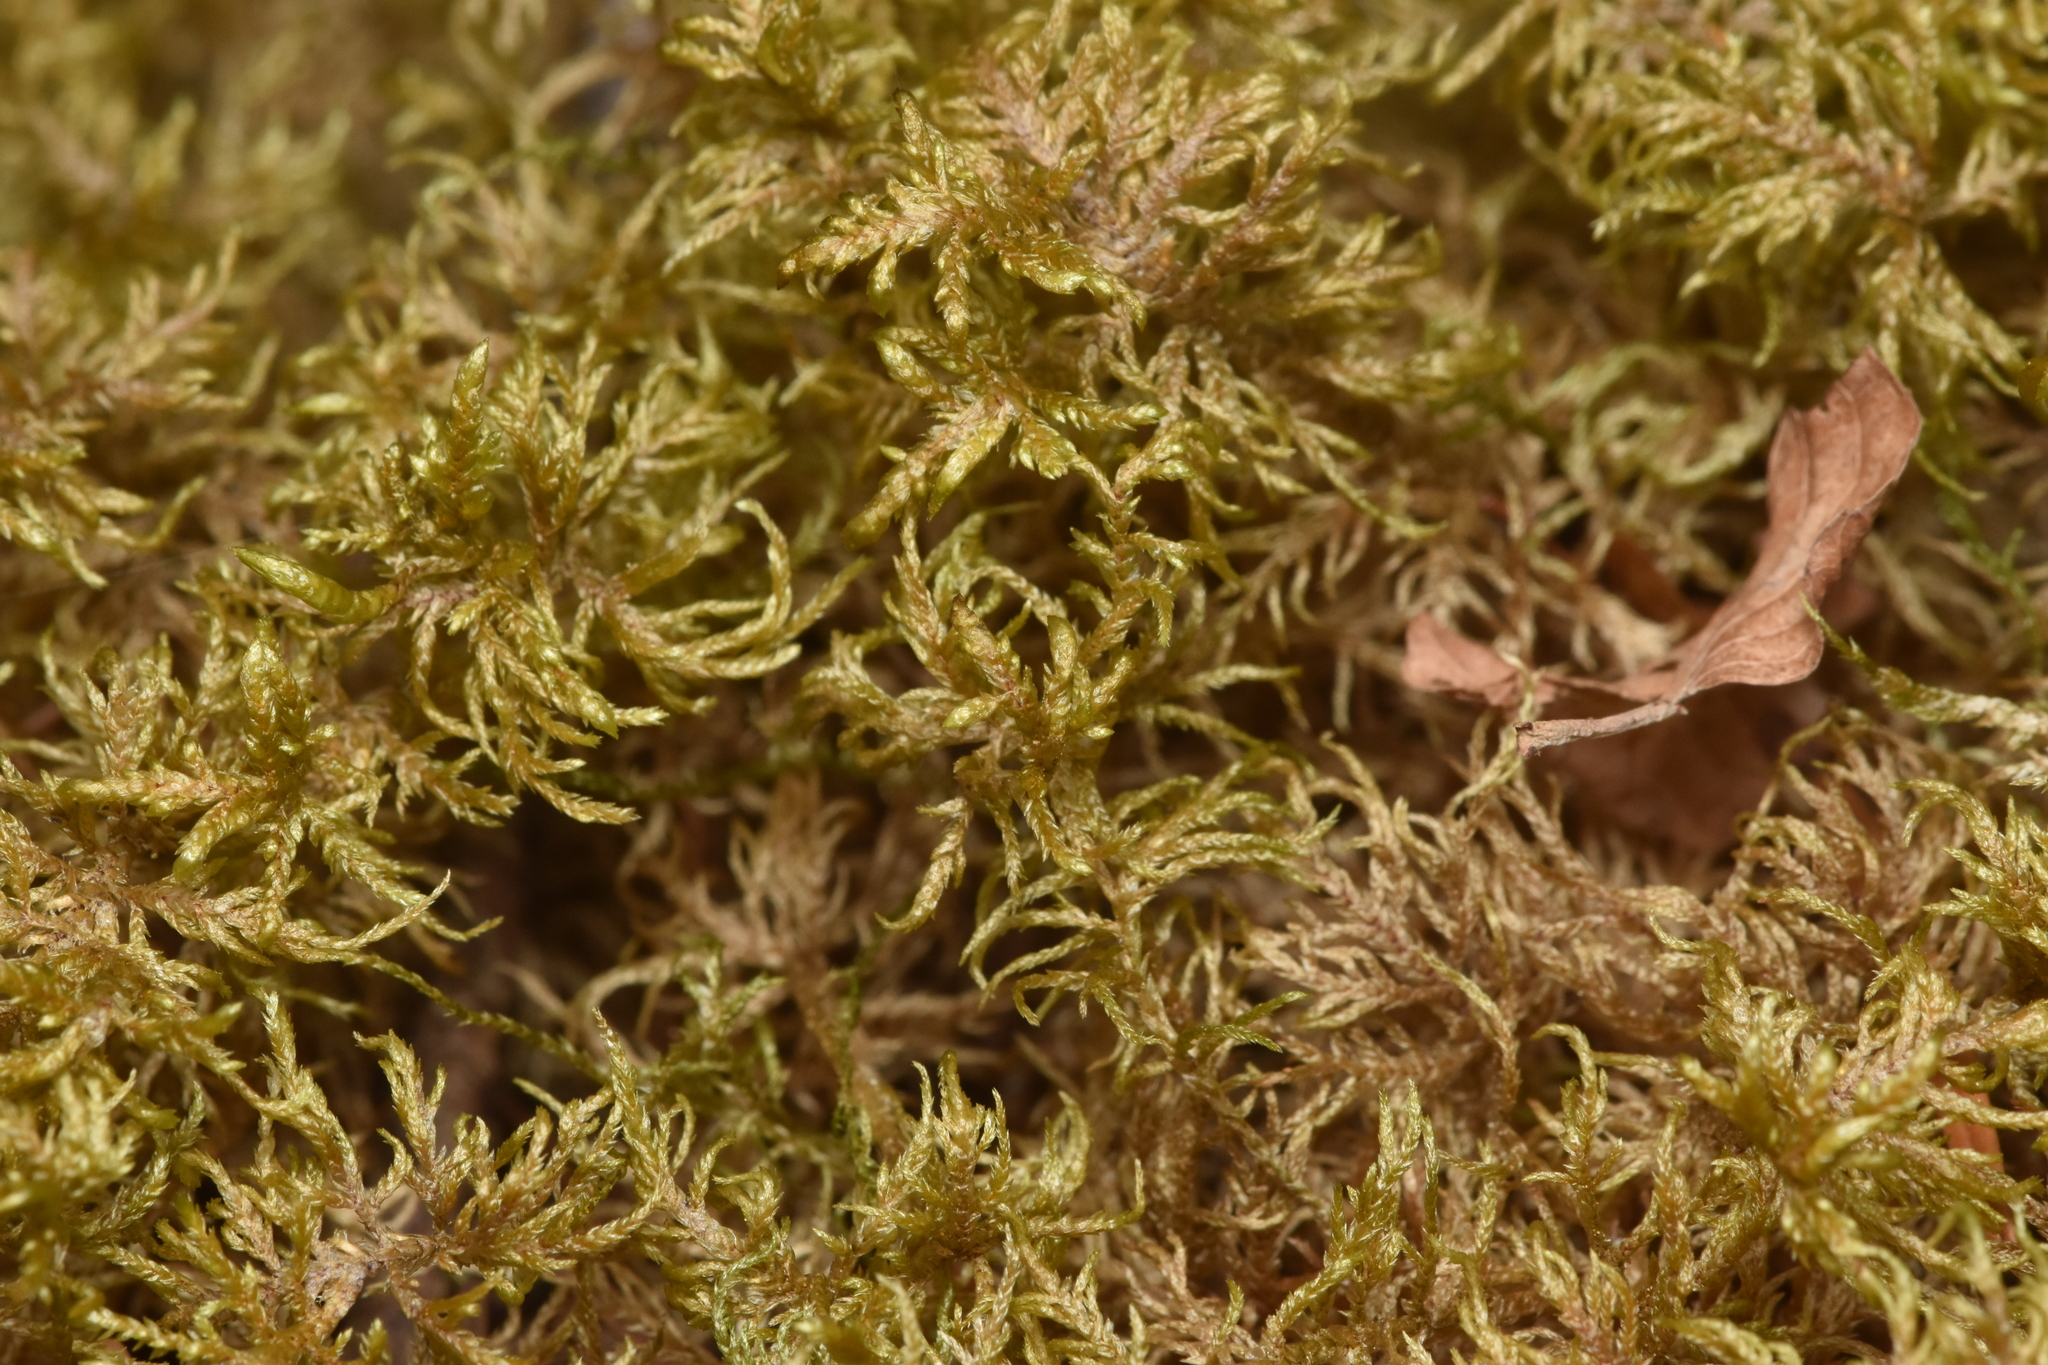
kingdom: Plantae
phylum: Bryophyta
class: Bryopsida
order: Hypnales
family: Hylocomiaceae
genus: Hylocomium
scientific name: Hylocomium splendens
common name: Stairstep moss
